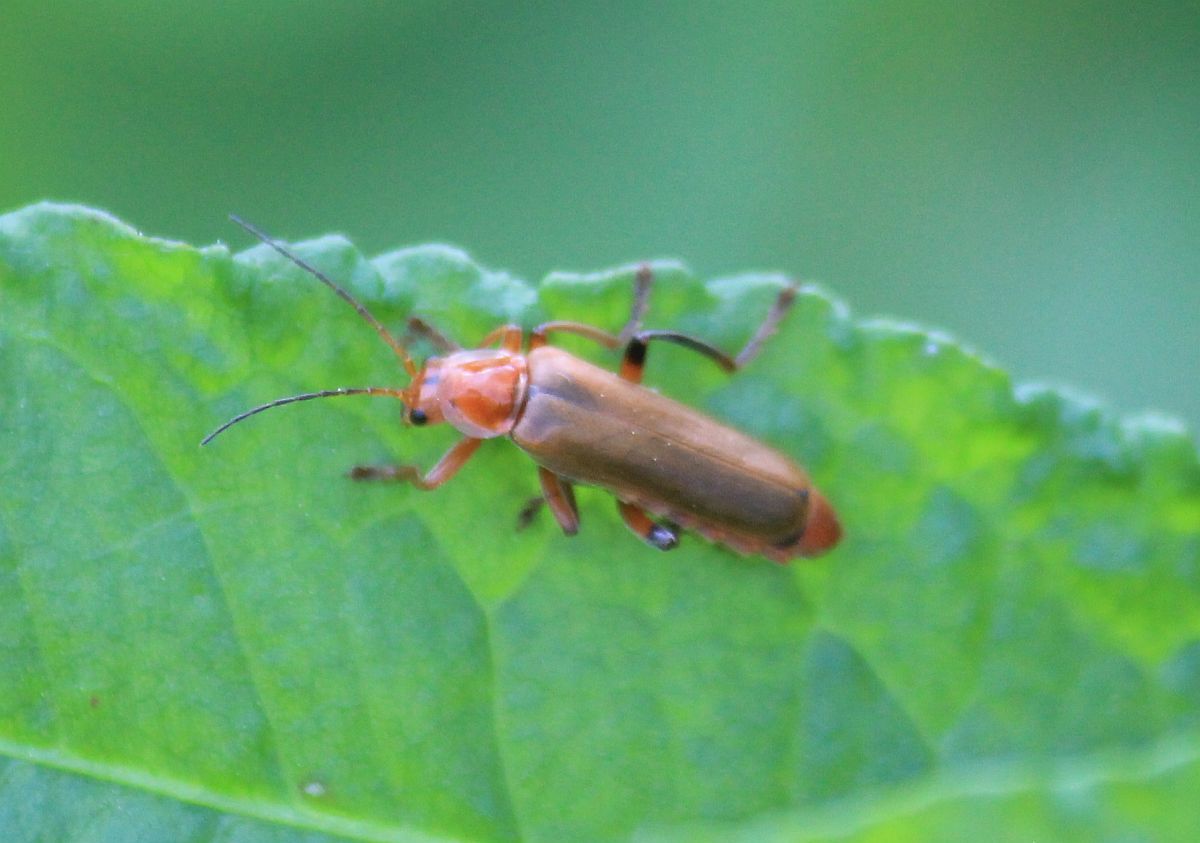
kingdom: Animalia
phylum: Arthropoda
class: Insecta
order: Coleoptera
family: Cantharidae
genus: Cantharis
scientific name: Cantharis livida
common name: Livid soldier beetle
